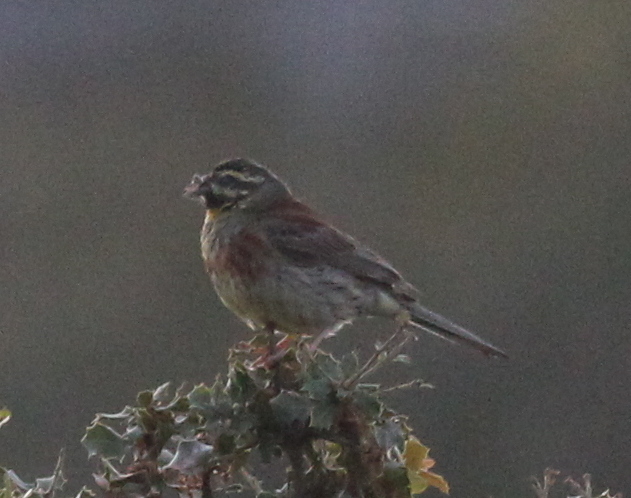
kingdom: Animalia
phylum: Chordata
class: Aves
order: Passeriformes
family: Emberizidae
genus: Emberiza
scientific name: Emberiza cirlus
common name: Cirl bunting
